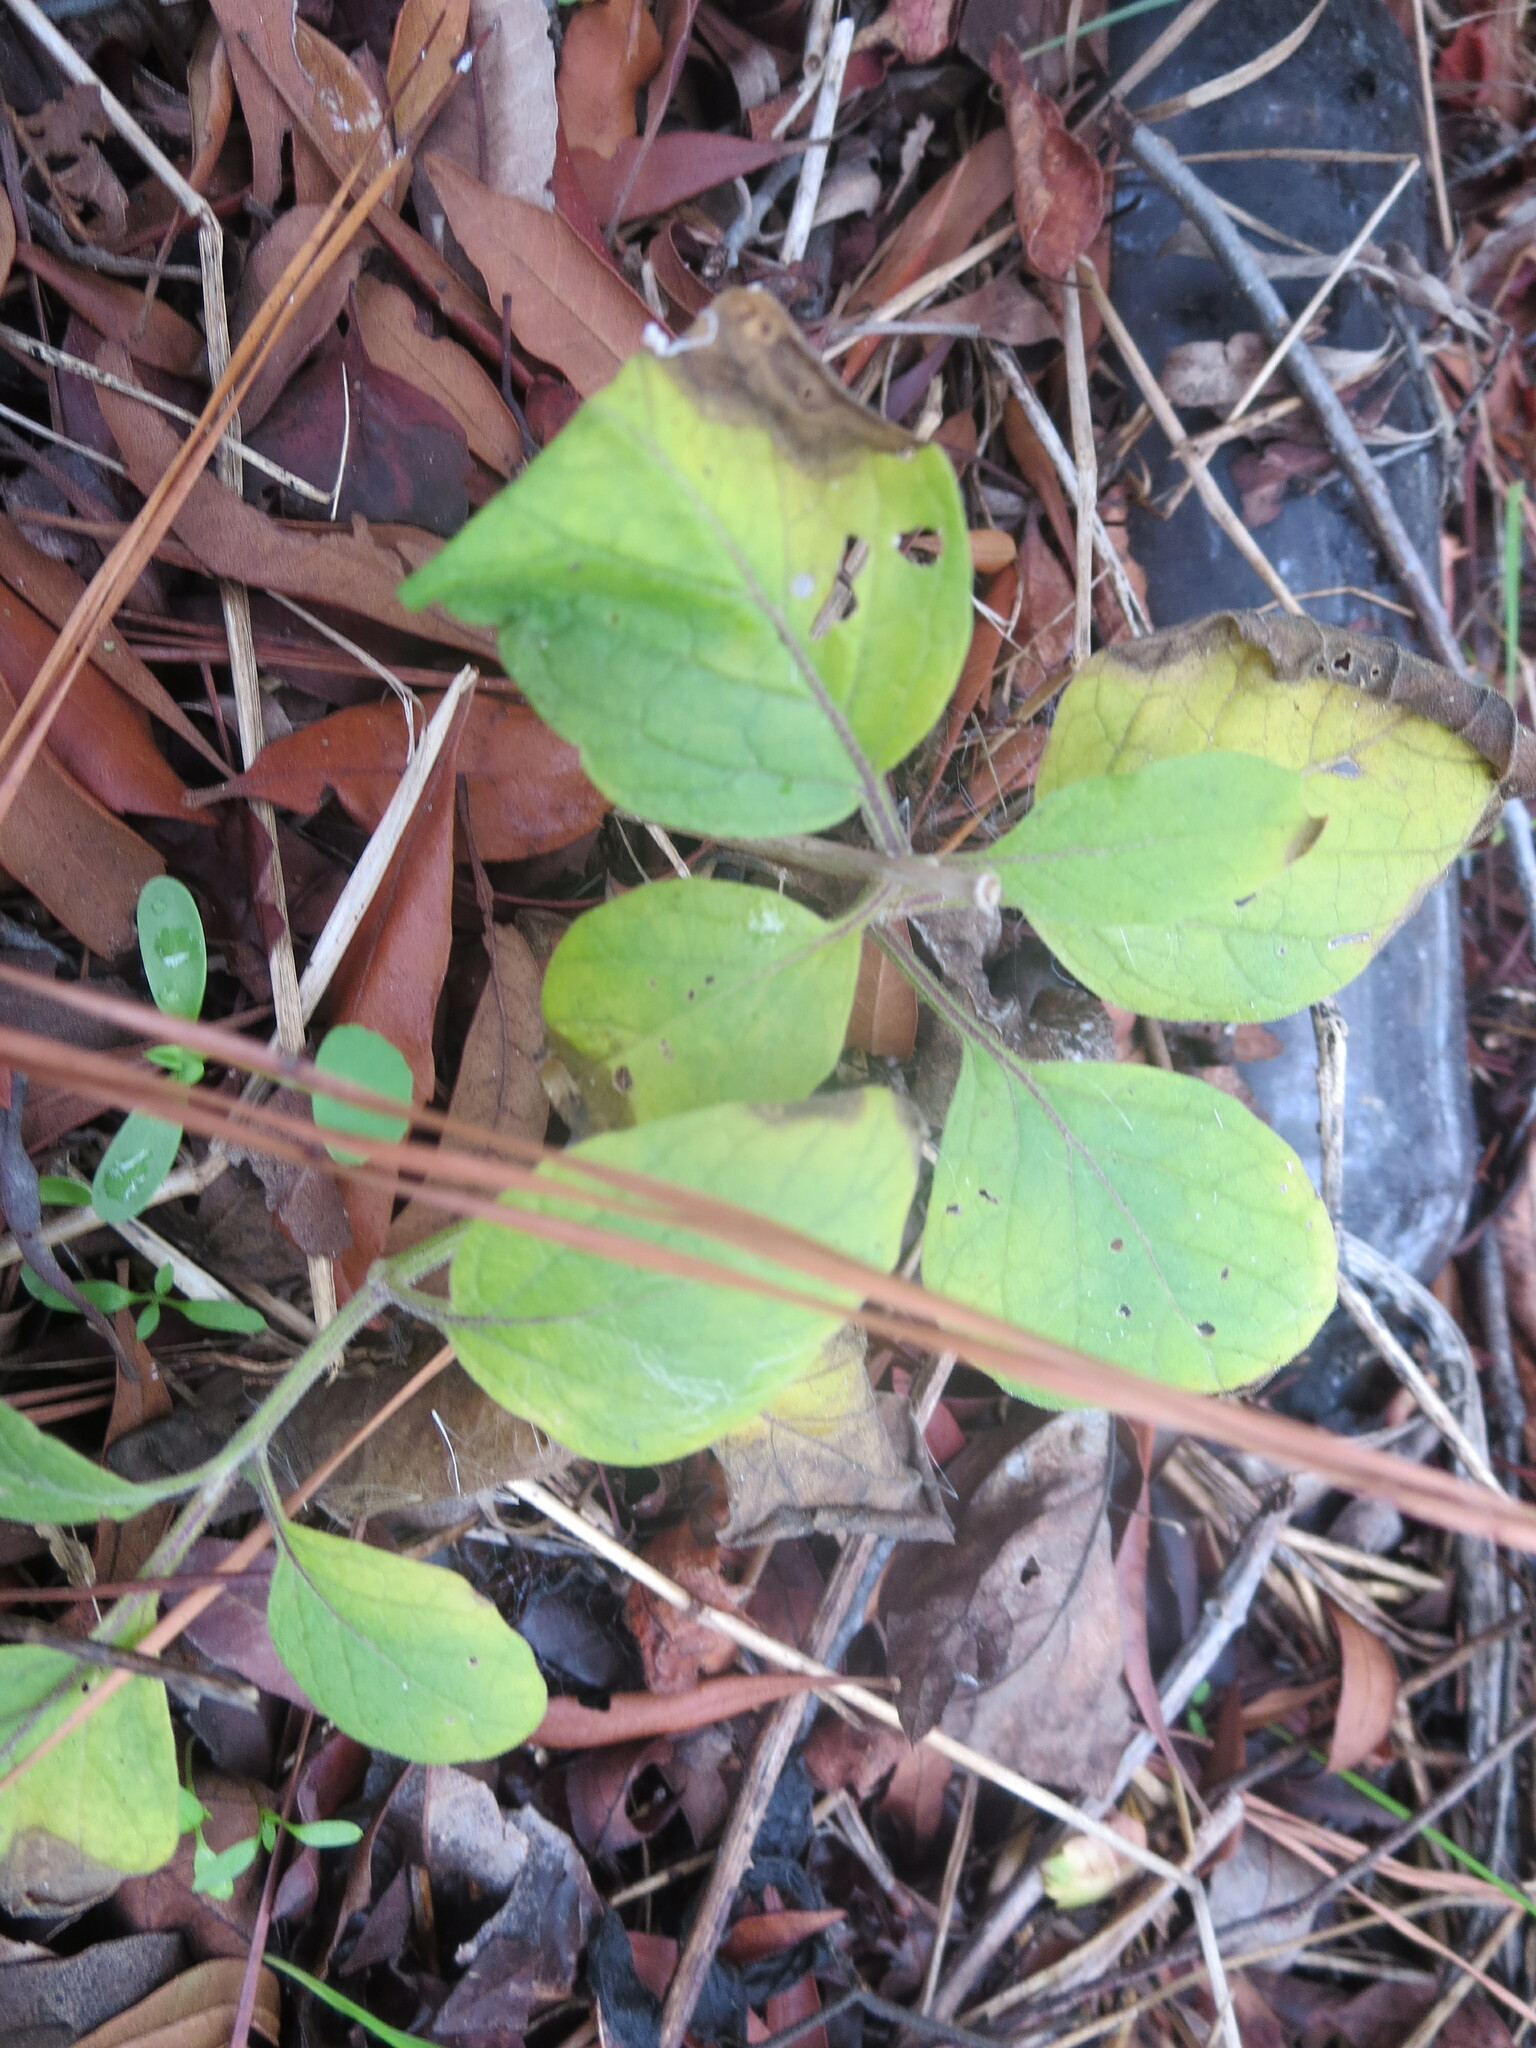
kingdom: Plantae
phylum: Tracheophyta
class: Magnoliopsida
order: Solanales
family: Solanaceae
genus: Physalis
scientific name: Physalis walteri
